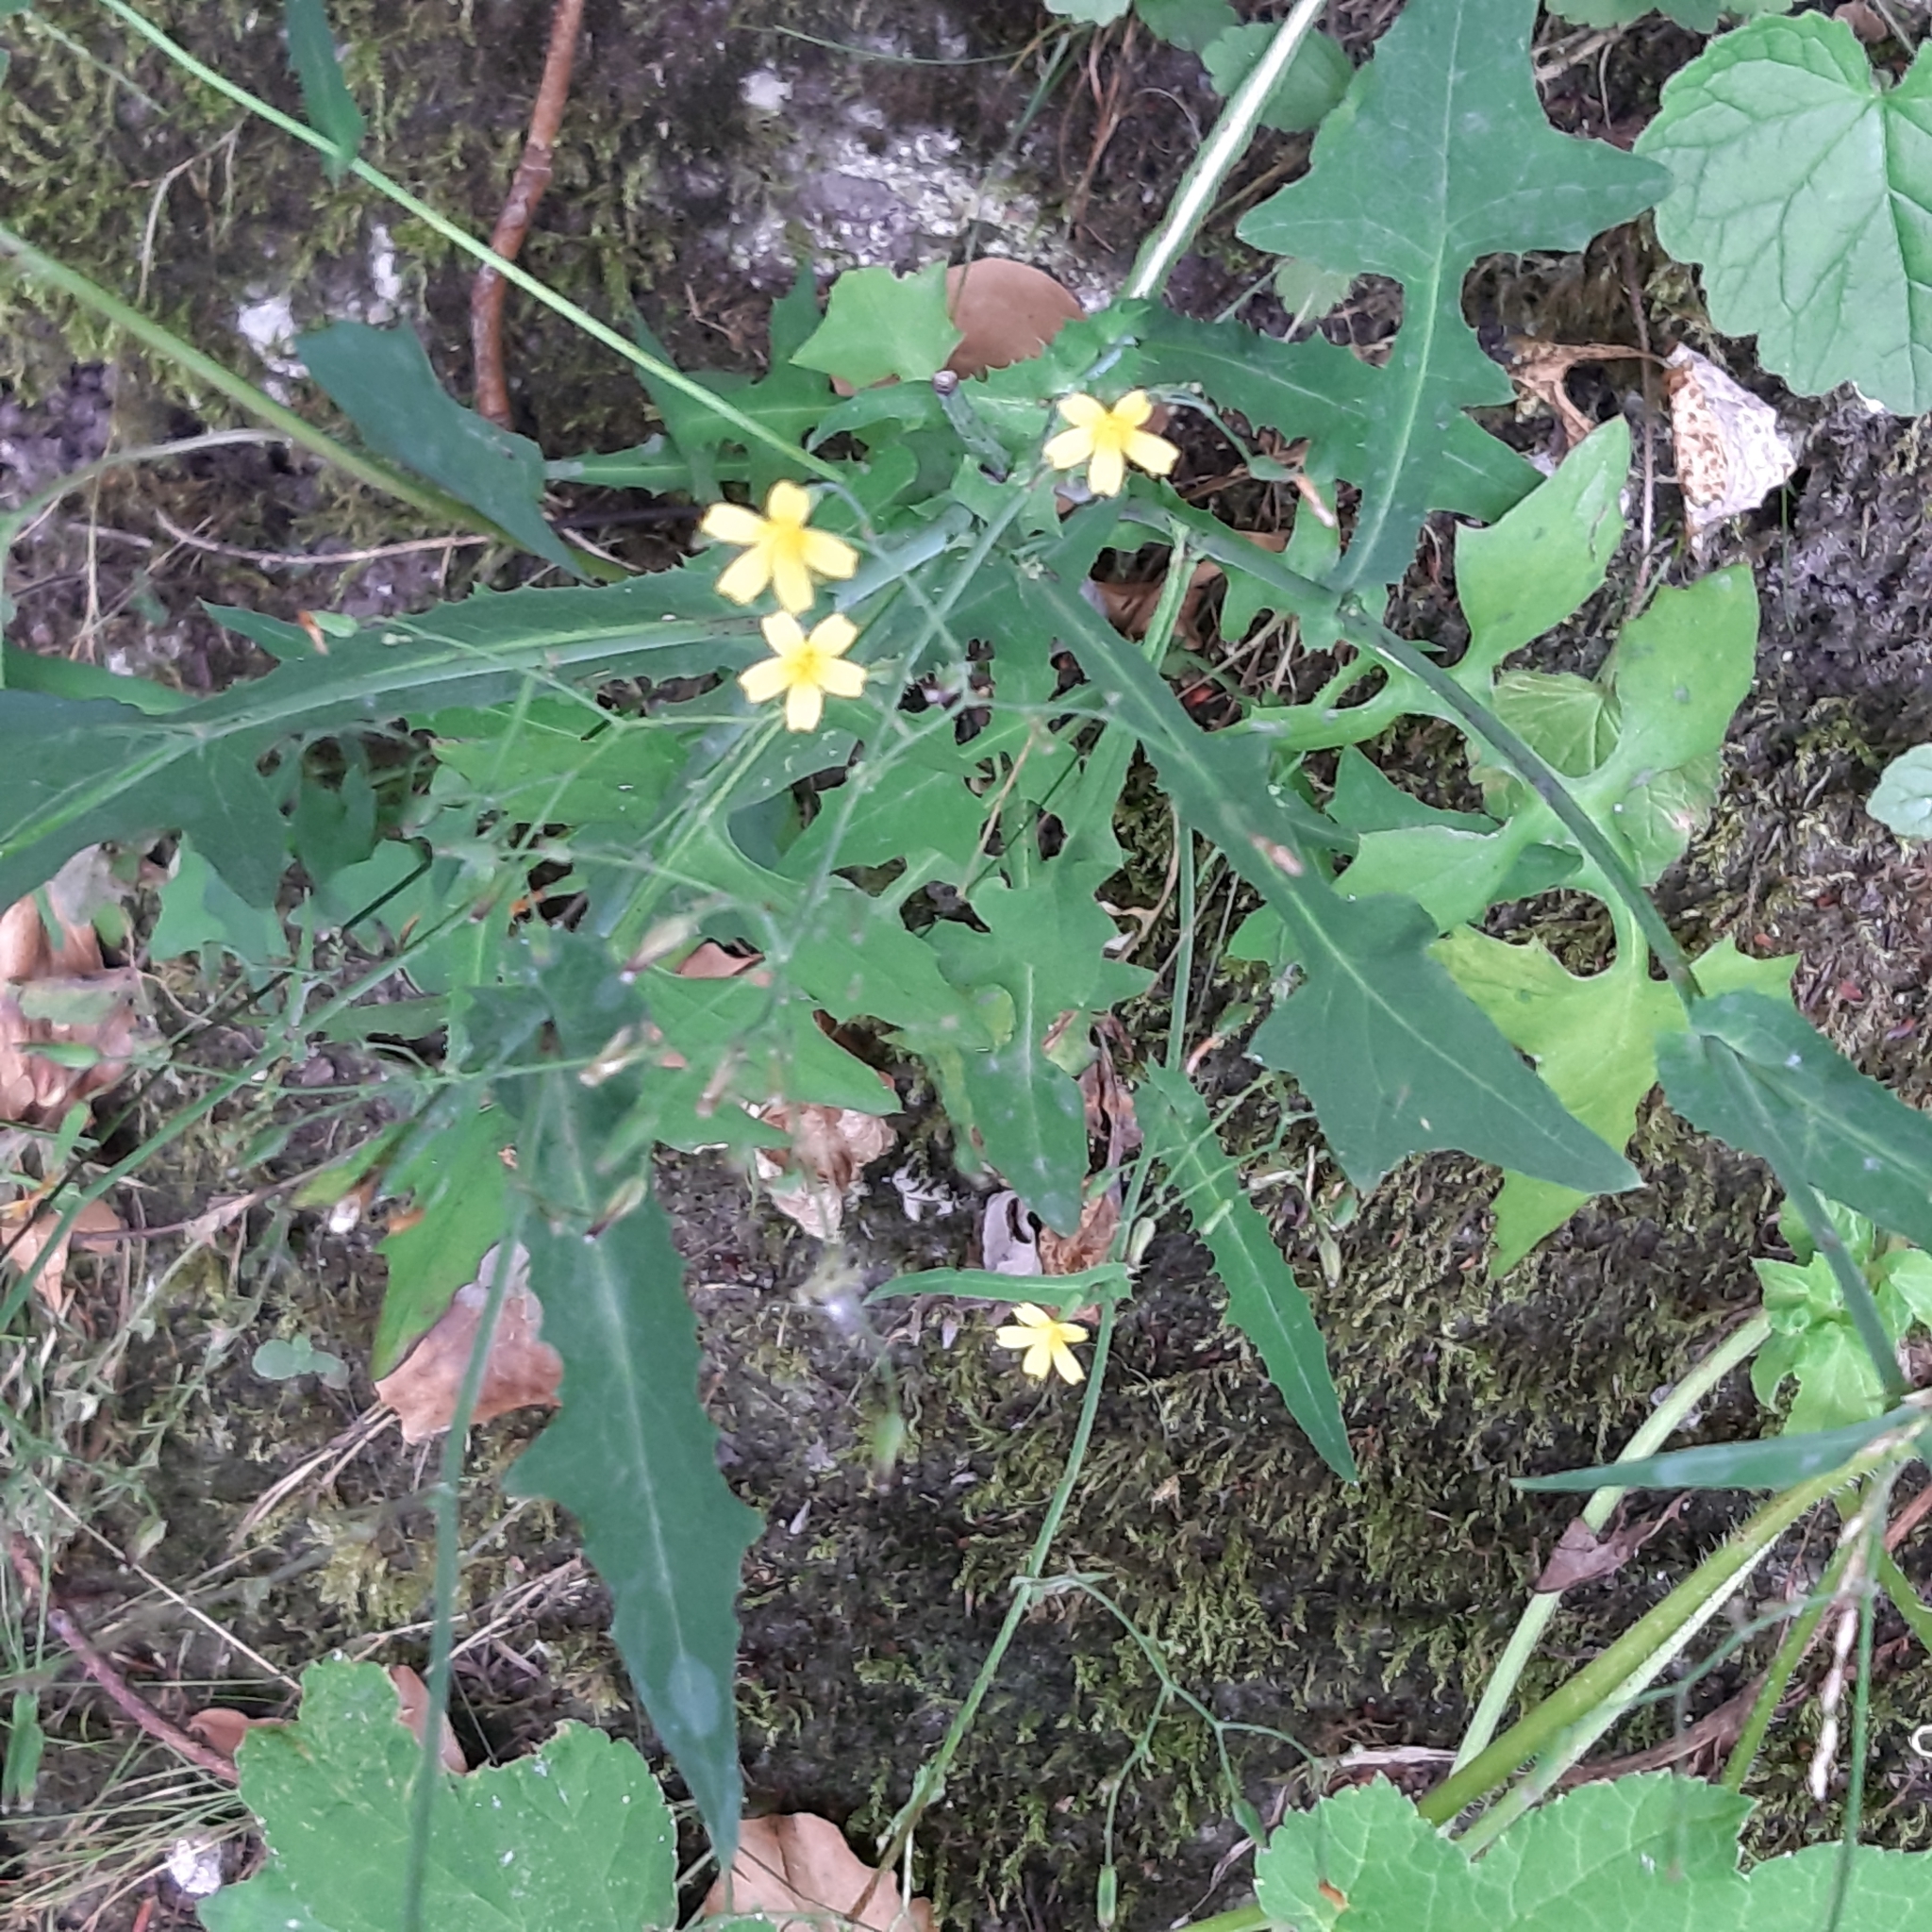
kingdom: Plantae
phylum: Tracheophyta
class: Magnoliopsida
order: Asterales
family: Asteraceae
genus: Mycelis
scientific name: Mycelis muralis
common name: Wall lettuce
